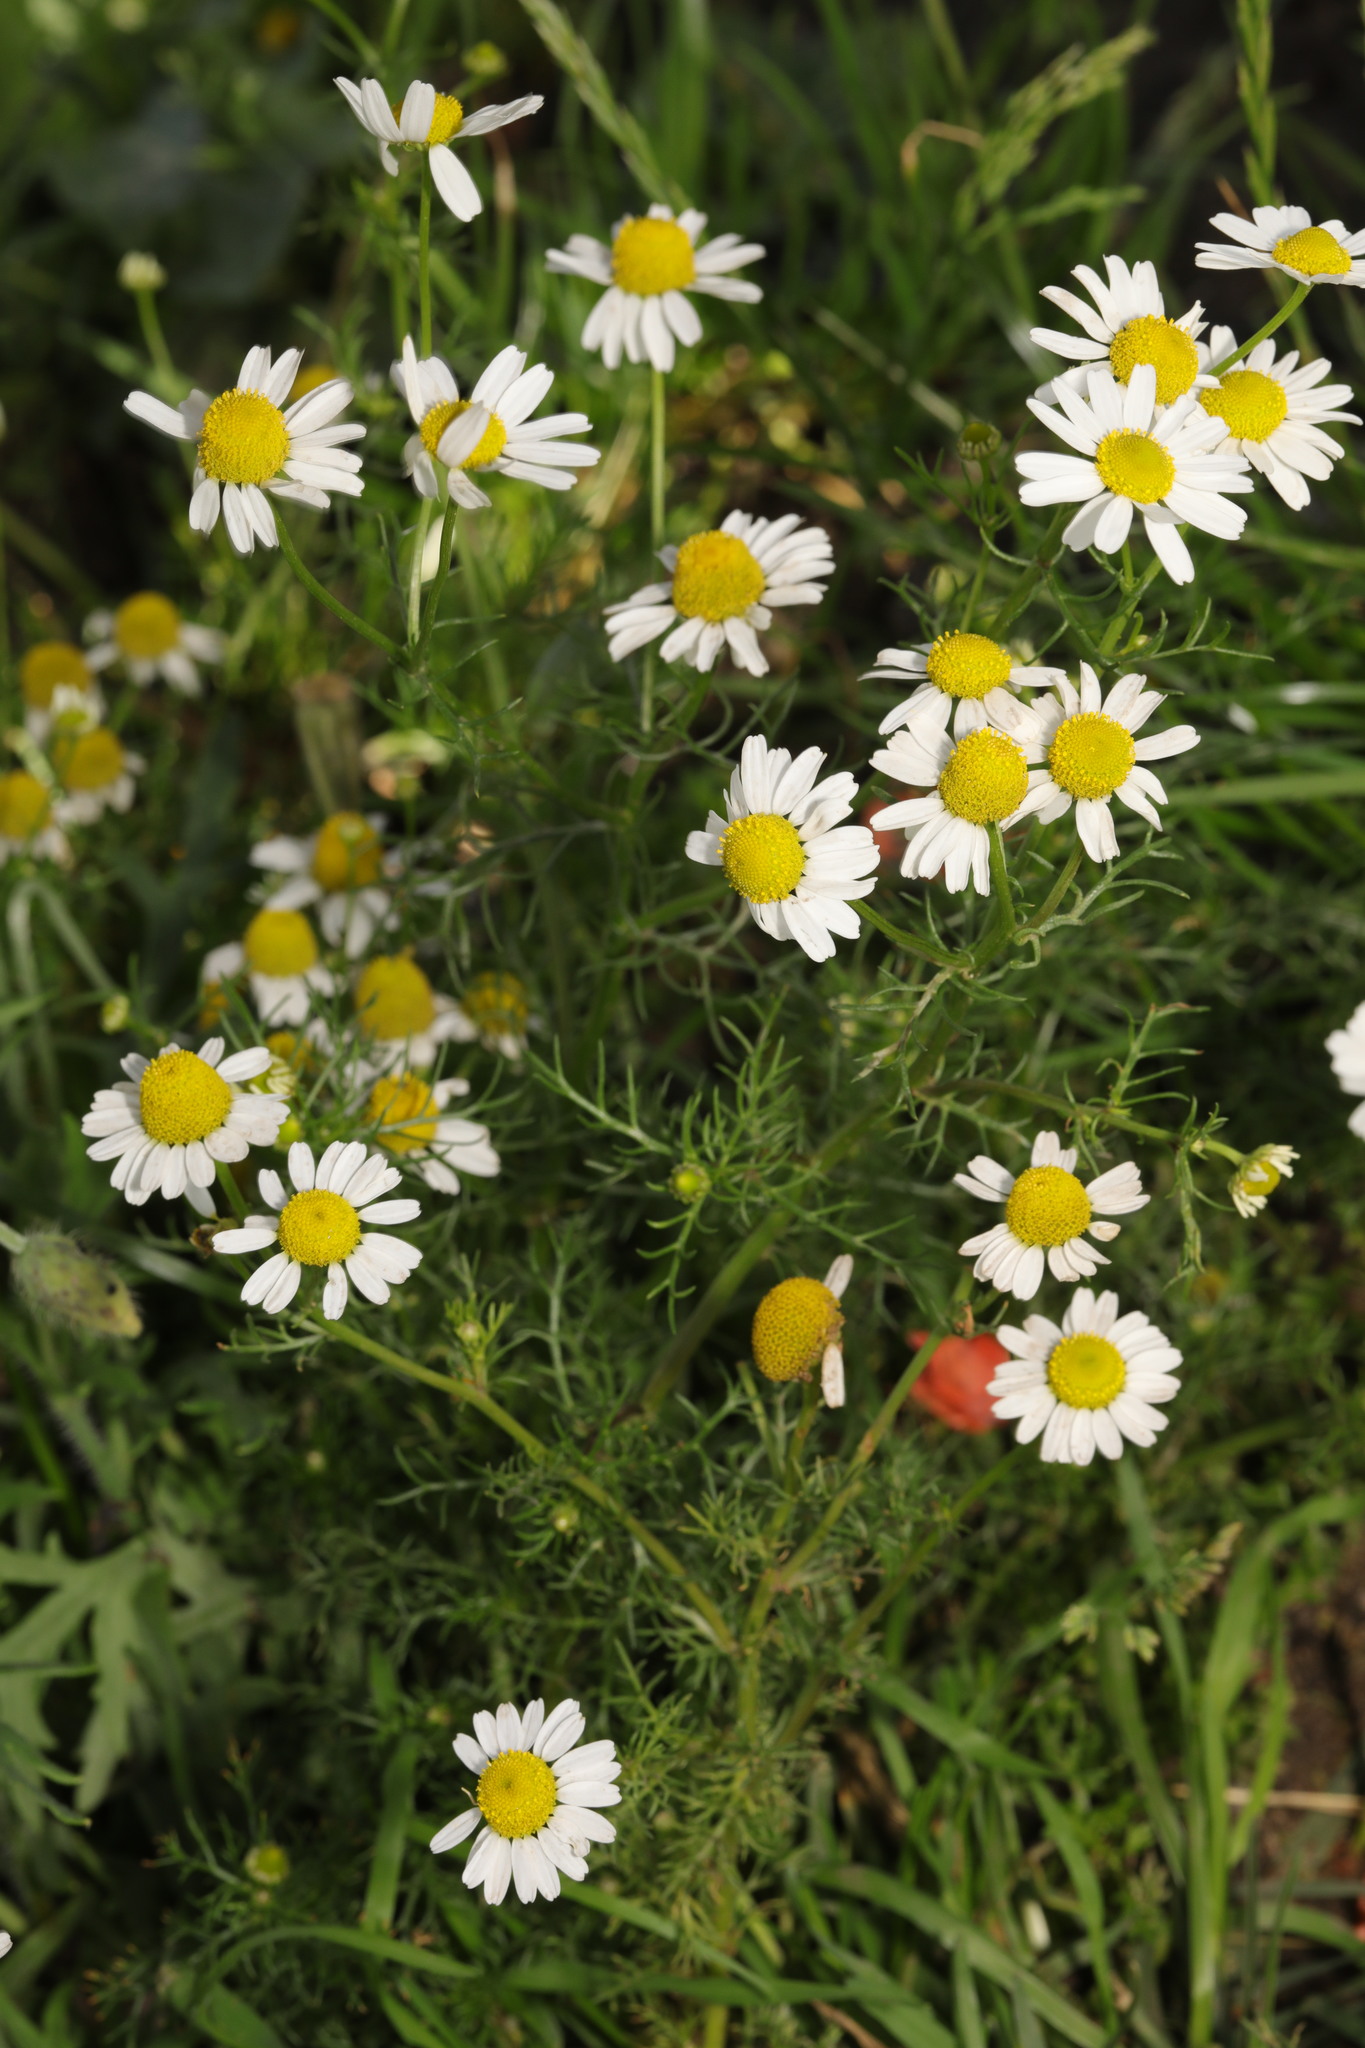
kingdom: Plantae
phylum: Tracheophyta
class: Magnoliopsida
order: Asterales
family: Asteraceae
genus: Matricaria
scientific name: Matricaria chamomilla
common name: Scented mayweed
